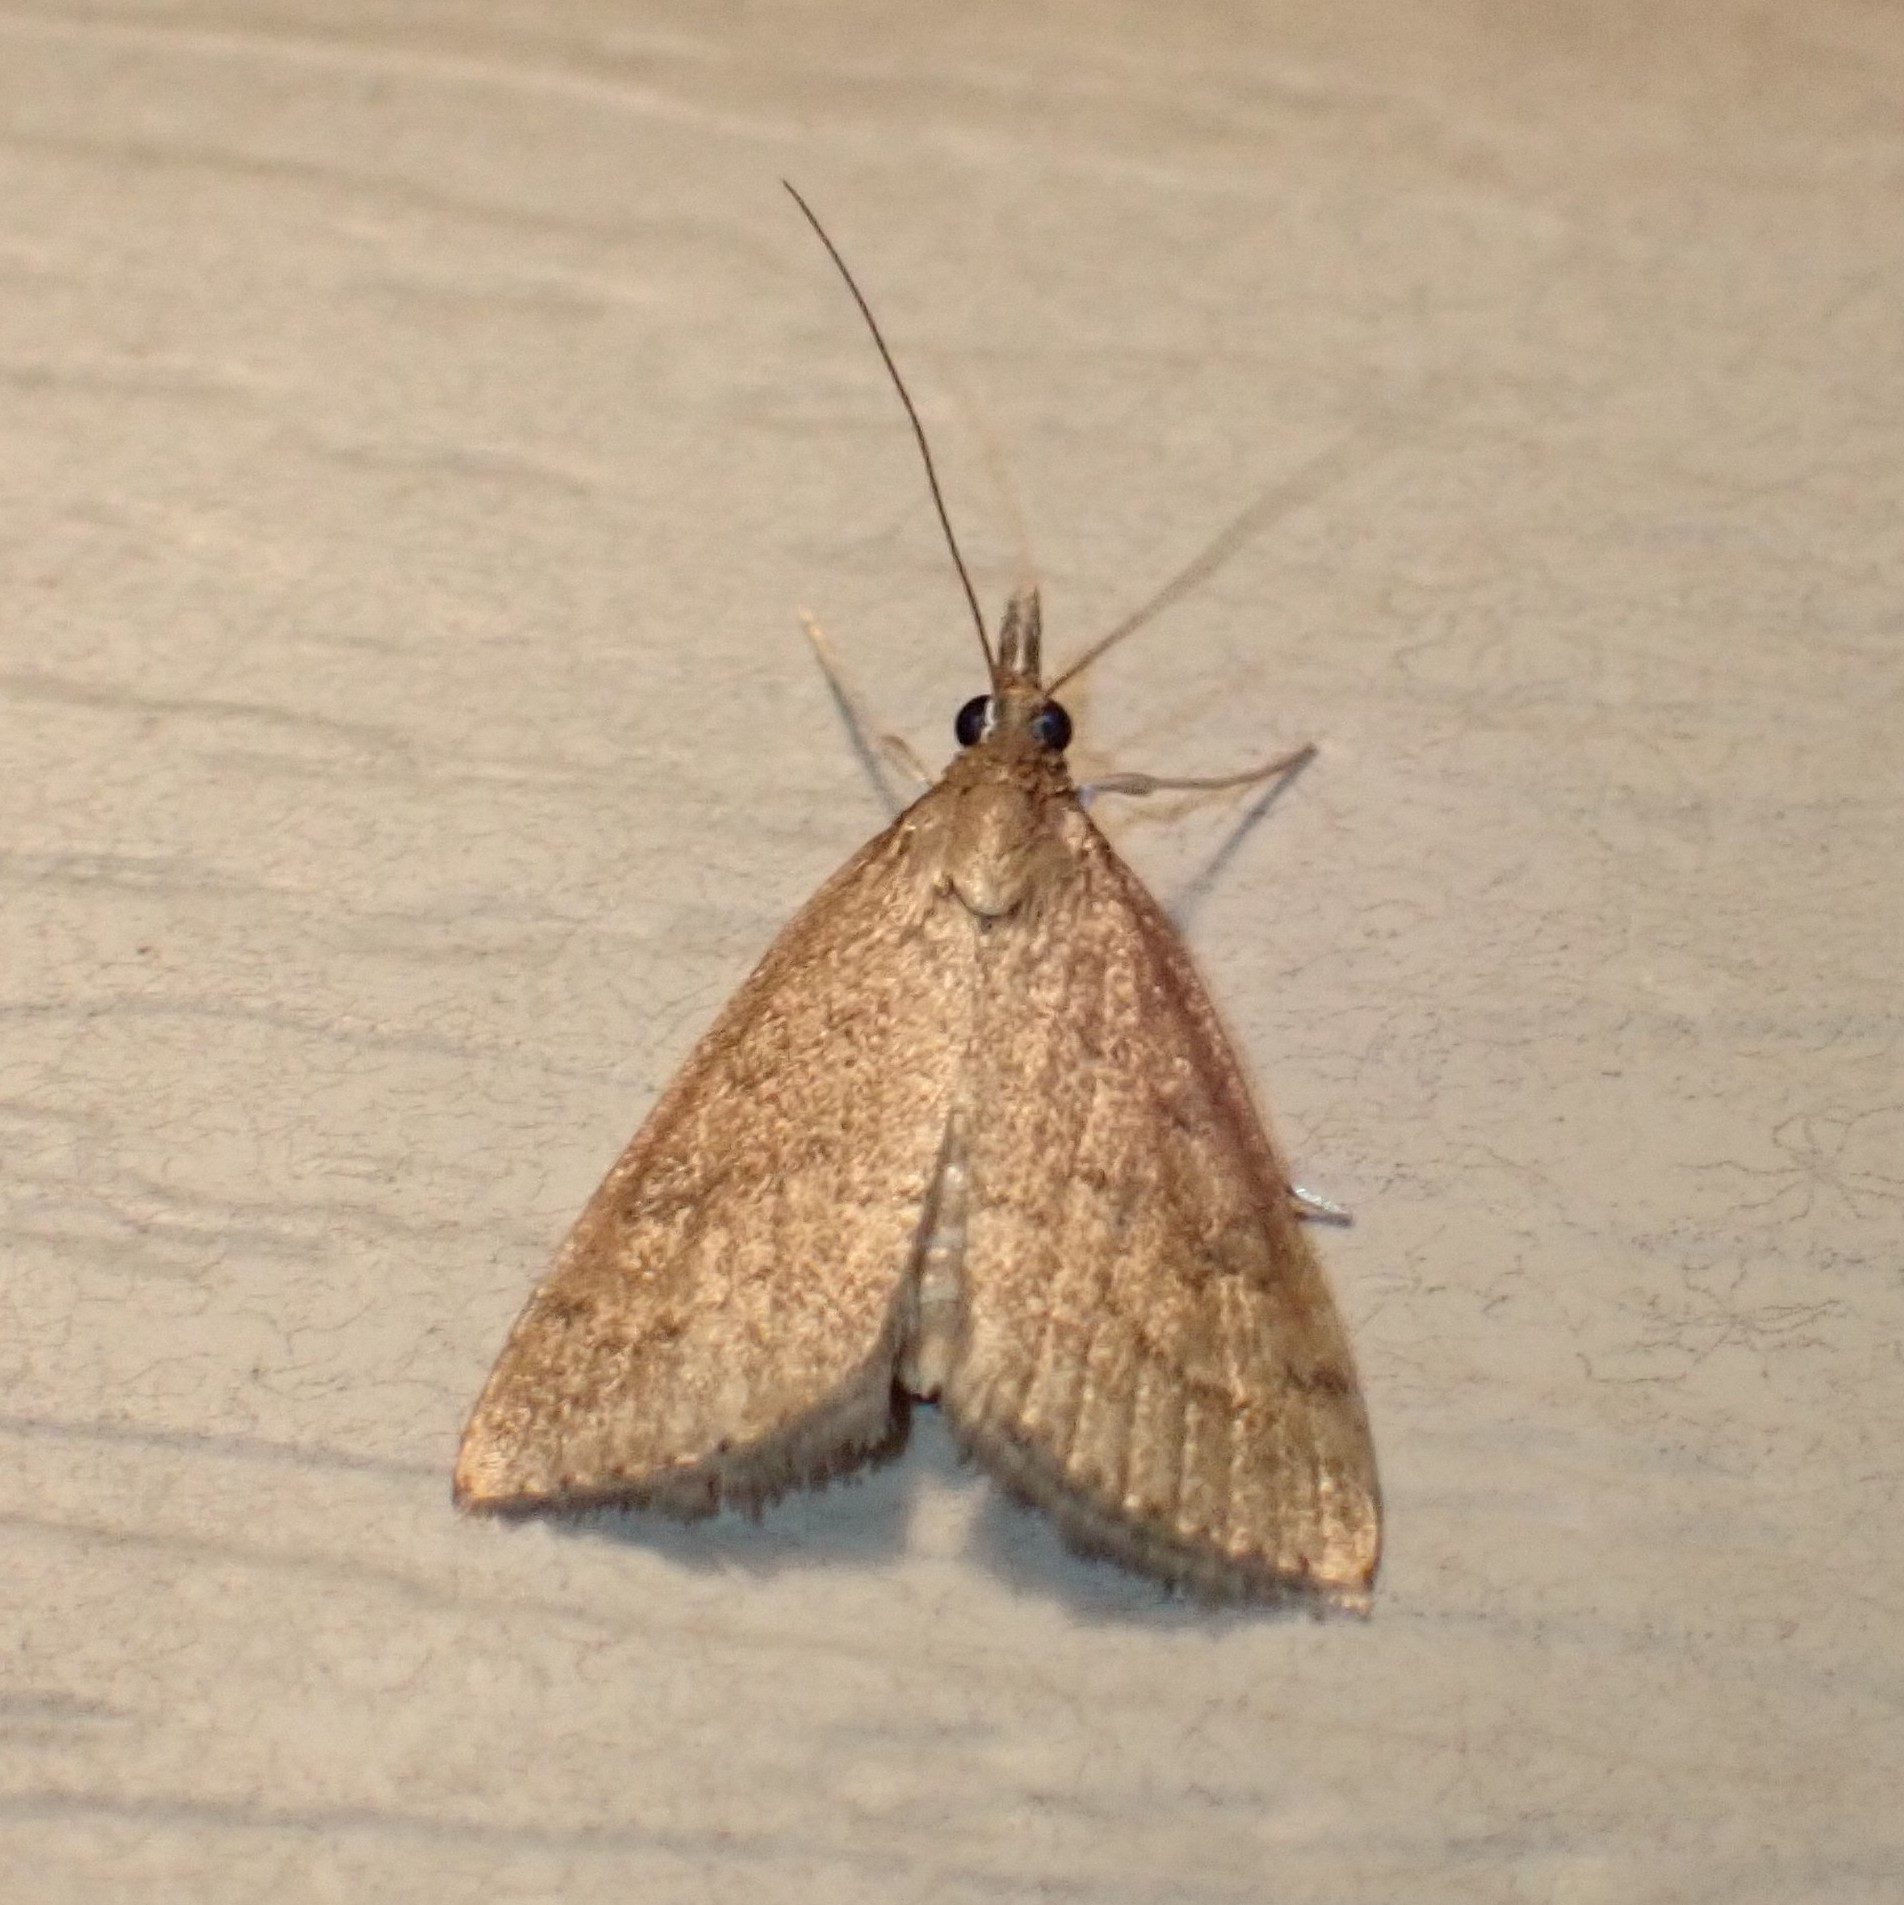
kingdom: Animalia
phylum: Arthropoda
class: Insecta
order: Lepidoptera
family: Crambidae
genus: Udea
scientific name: Udea rubigalis
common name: Celery leaftier moth
